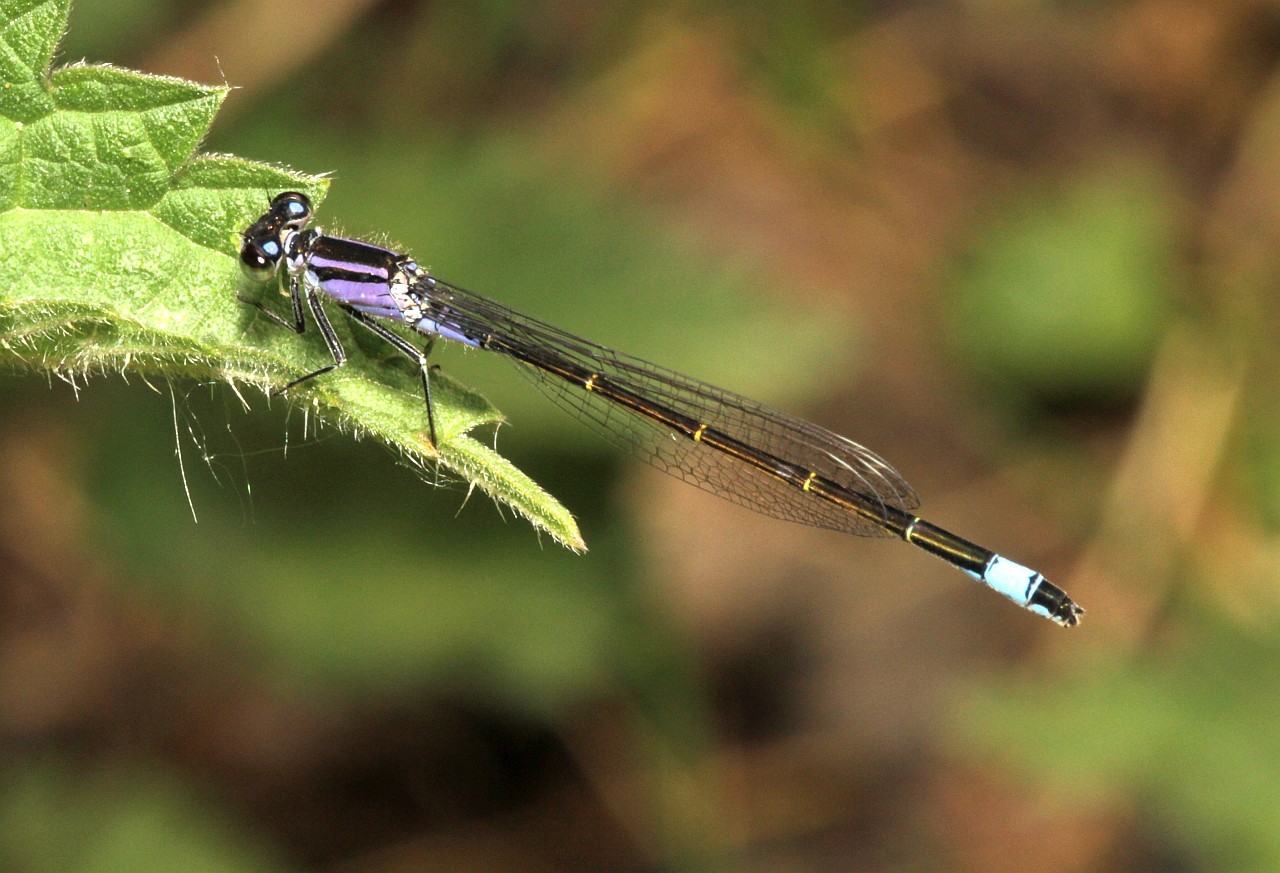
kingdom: Animalia
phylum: Arthropoda
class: Insecta
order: Odonata
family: Coenagrionidae
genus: Ischnura
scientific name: Ischnura elegans
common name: Blue-tailed damselfly
